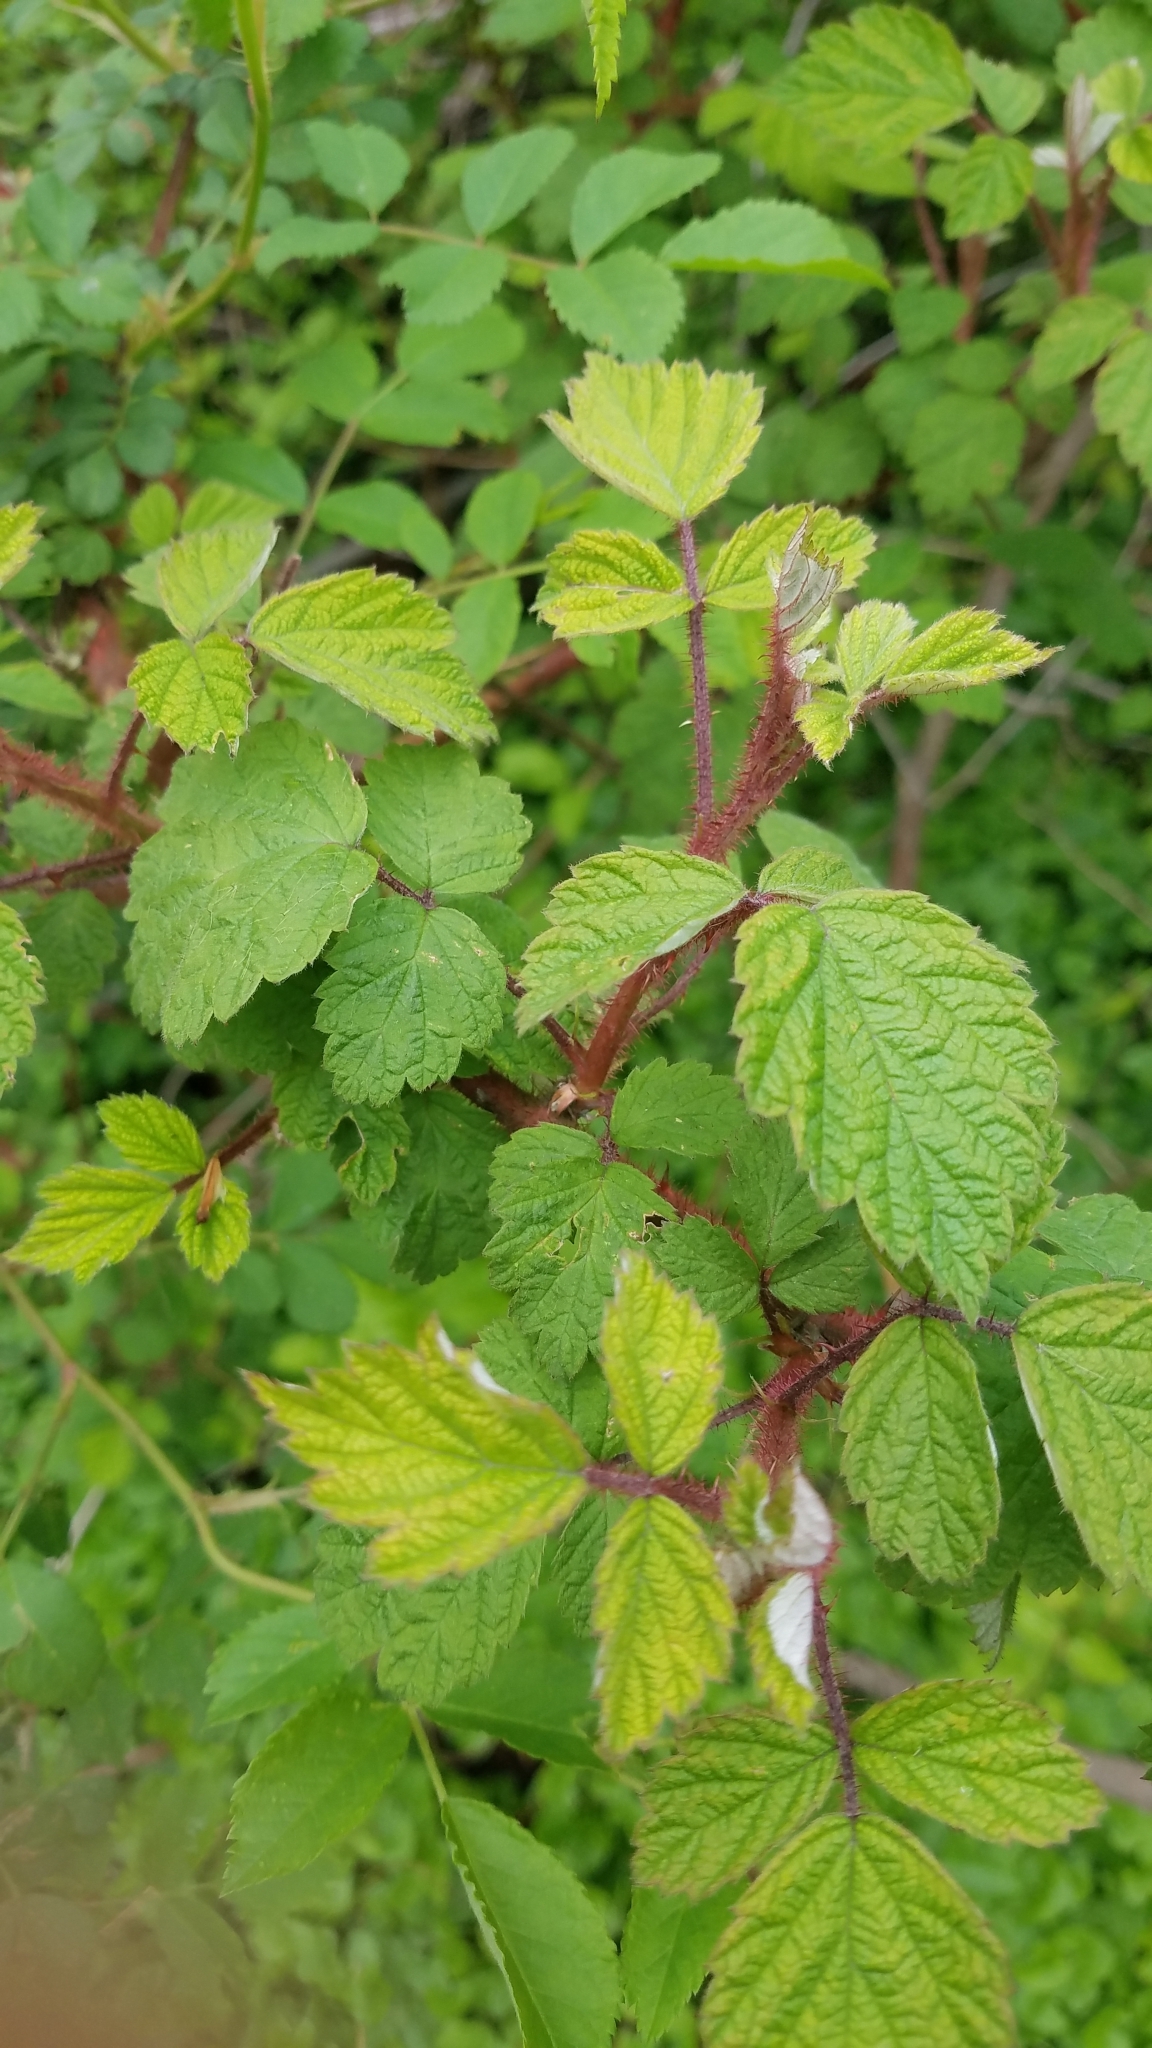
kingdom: Plantae
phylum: Tracheophyta
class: Magnoliopsida
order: Rosales
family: Rosaceae
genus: Rubus
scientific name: Rubus phoenicolasius
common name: Japanese wineberry
